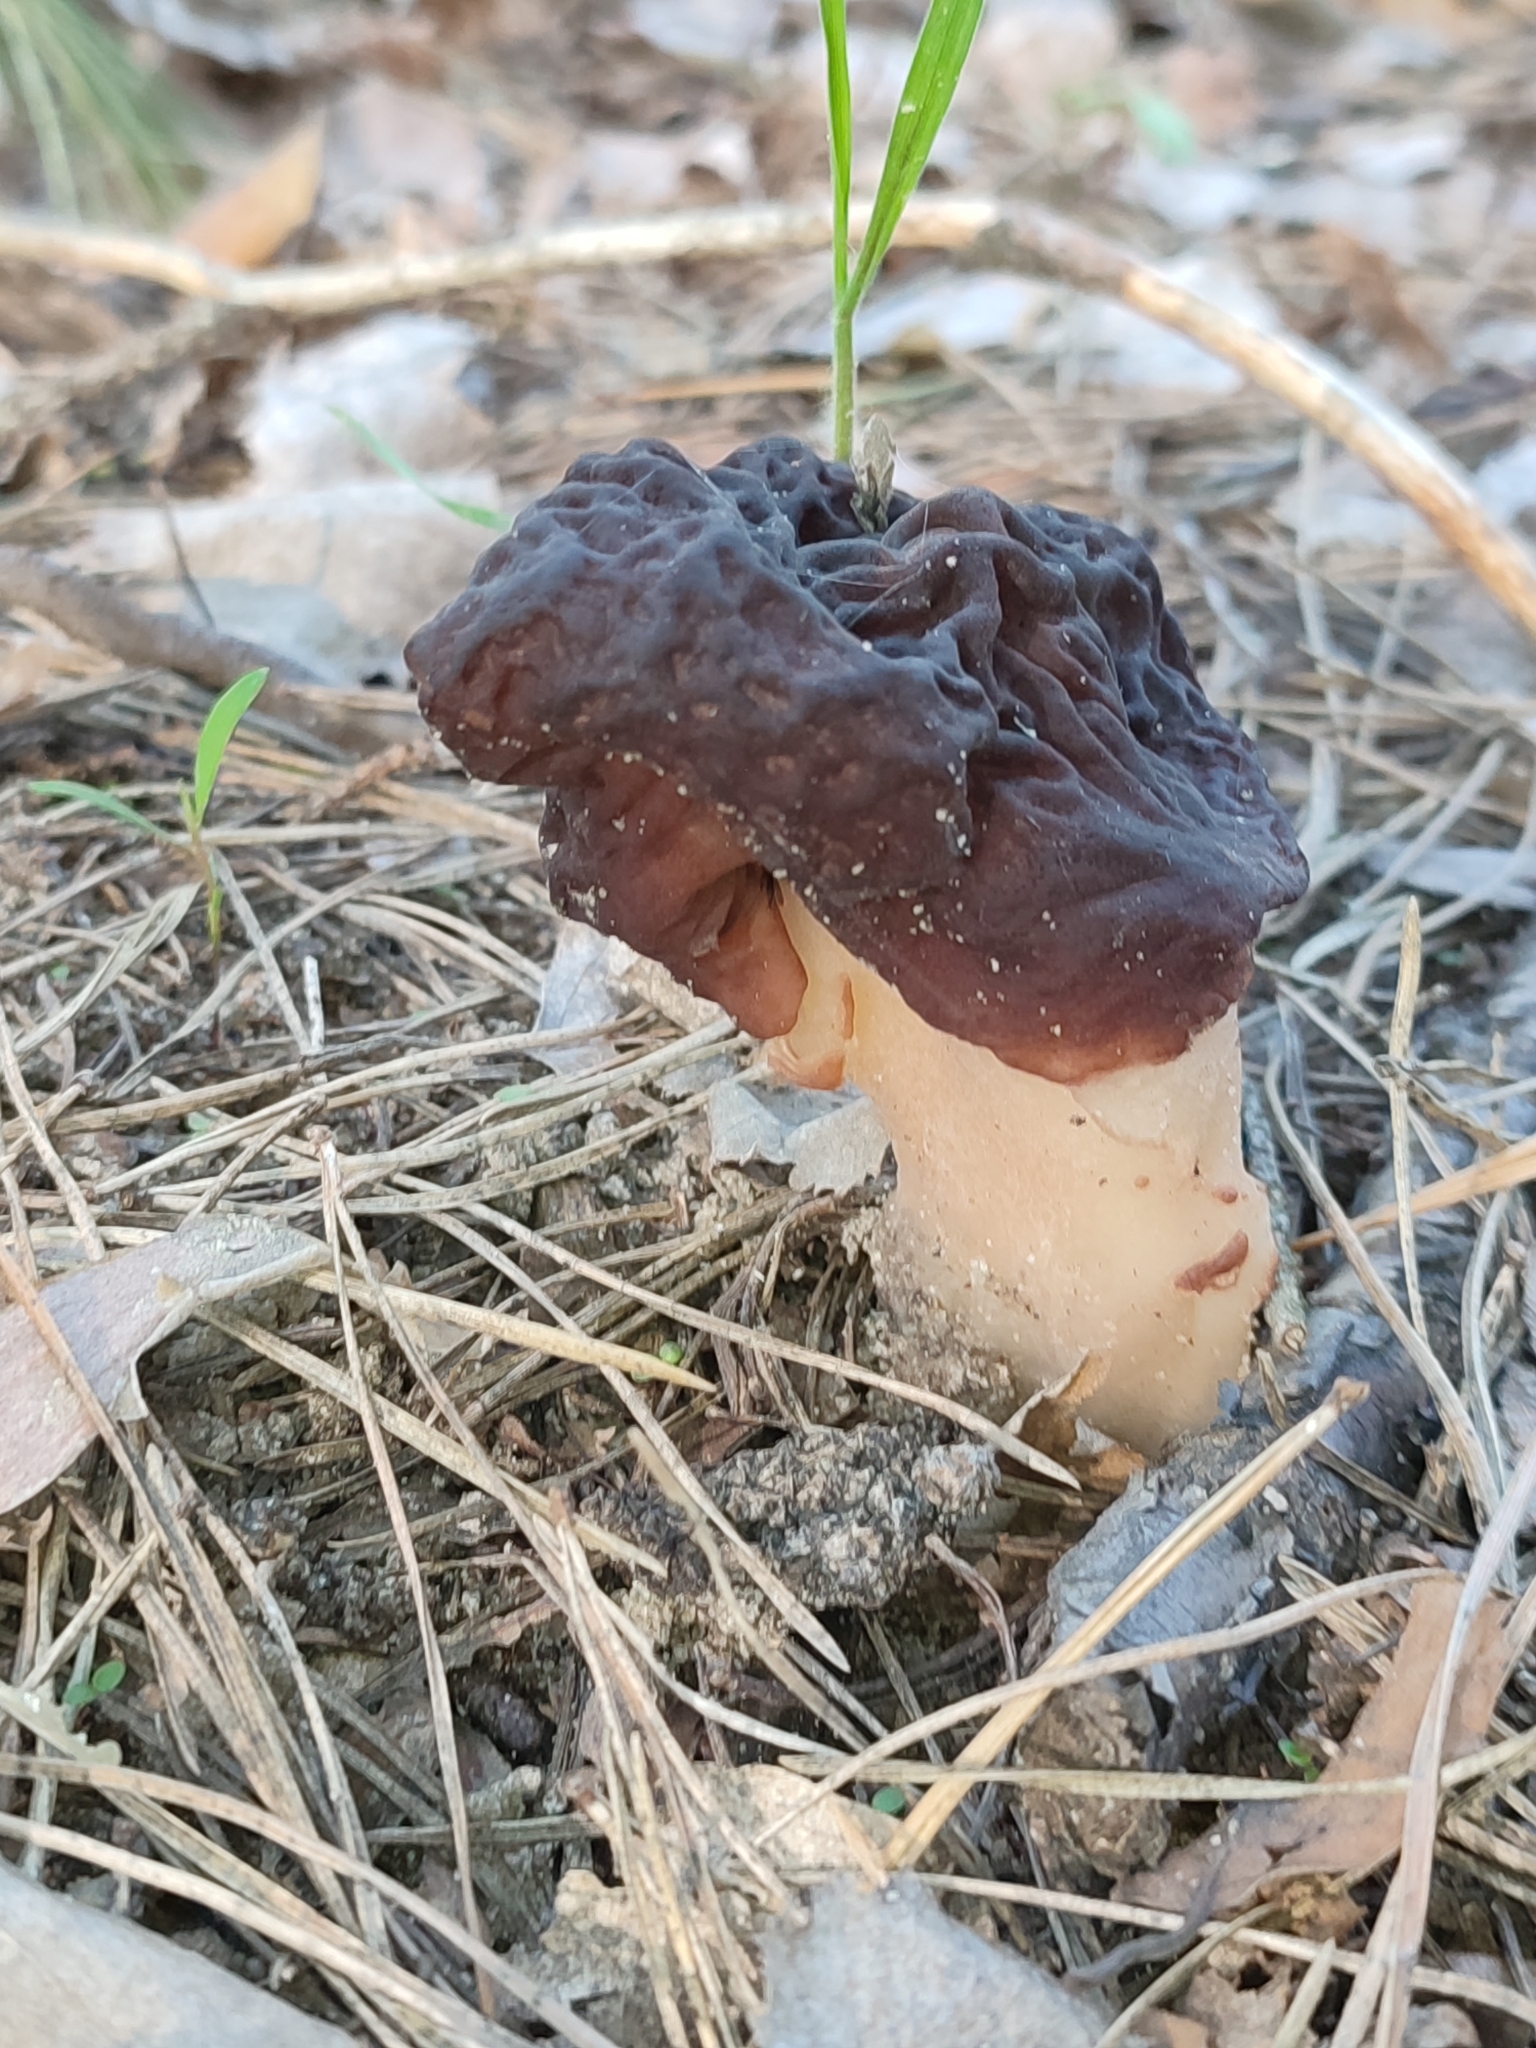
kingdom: Fungi
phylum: Ascomycota
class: Pezizomycetes
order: Pezizales
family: Discinaceae
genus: Gyromitra
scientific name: Gyromitra esculenta
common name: False morel
